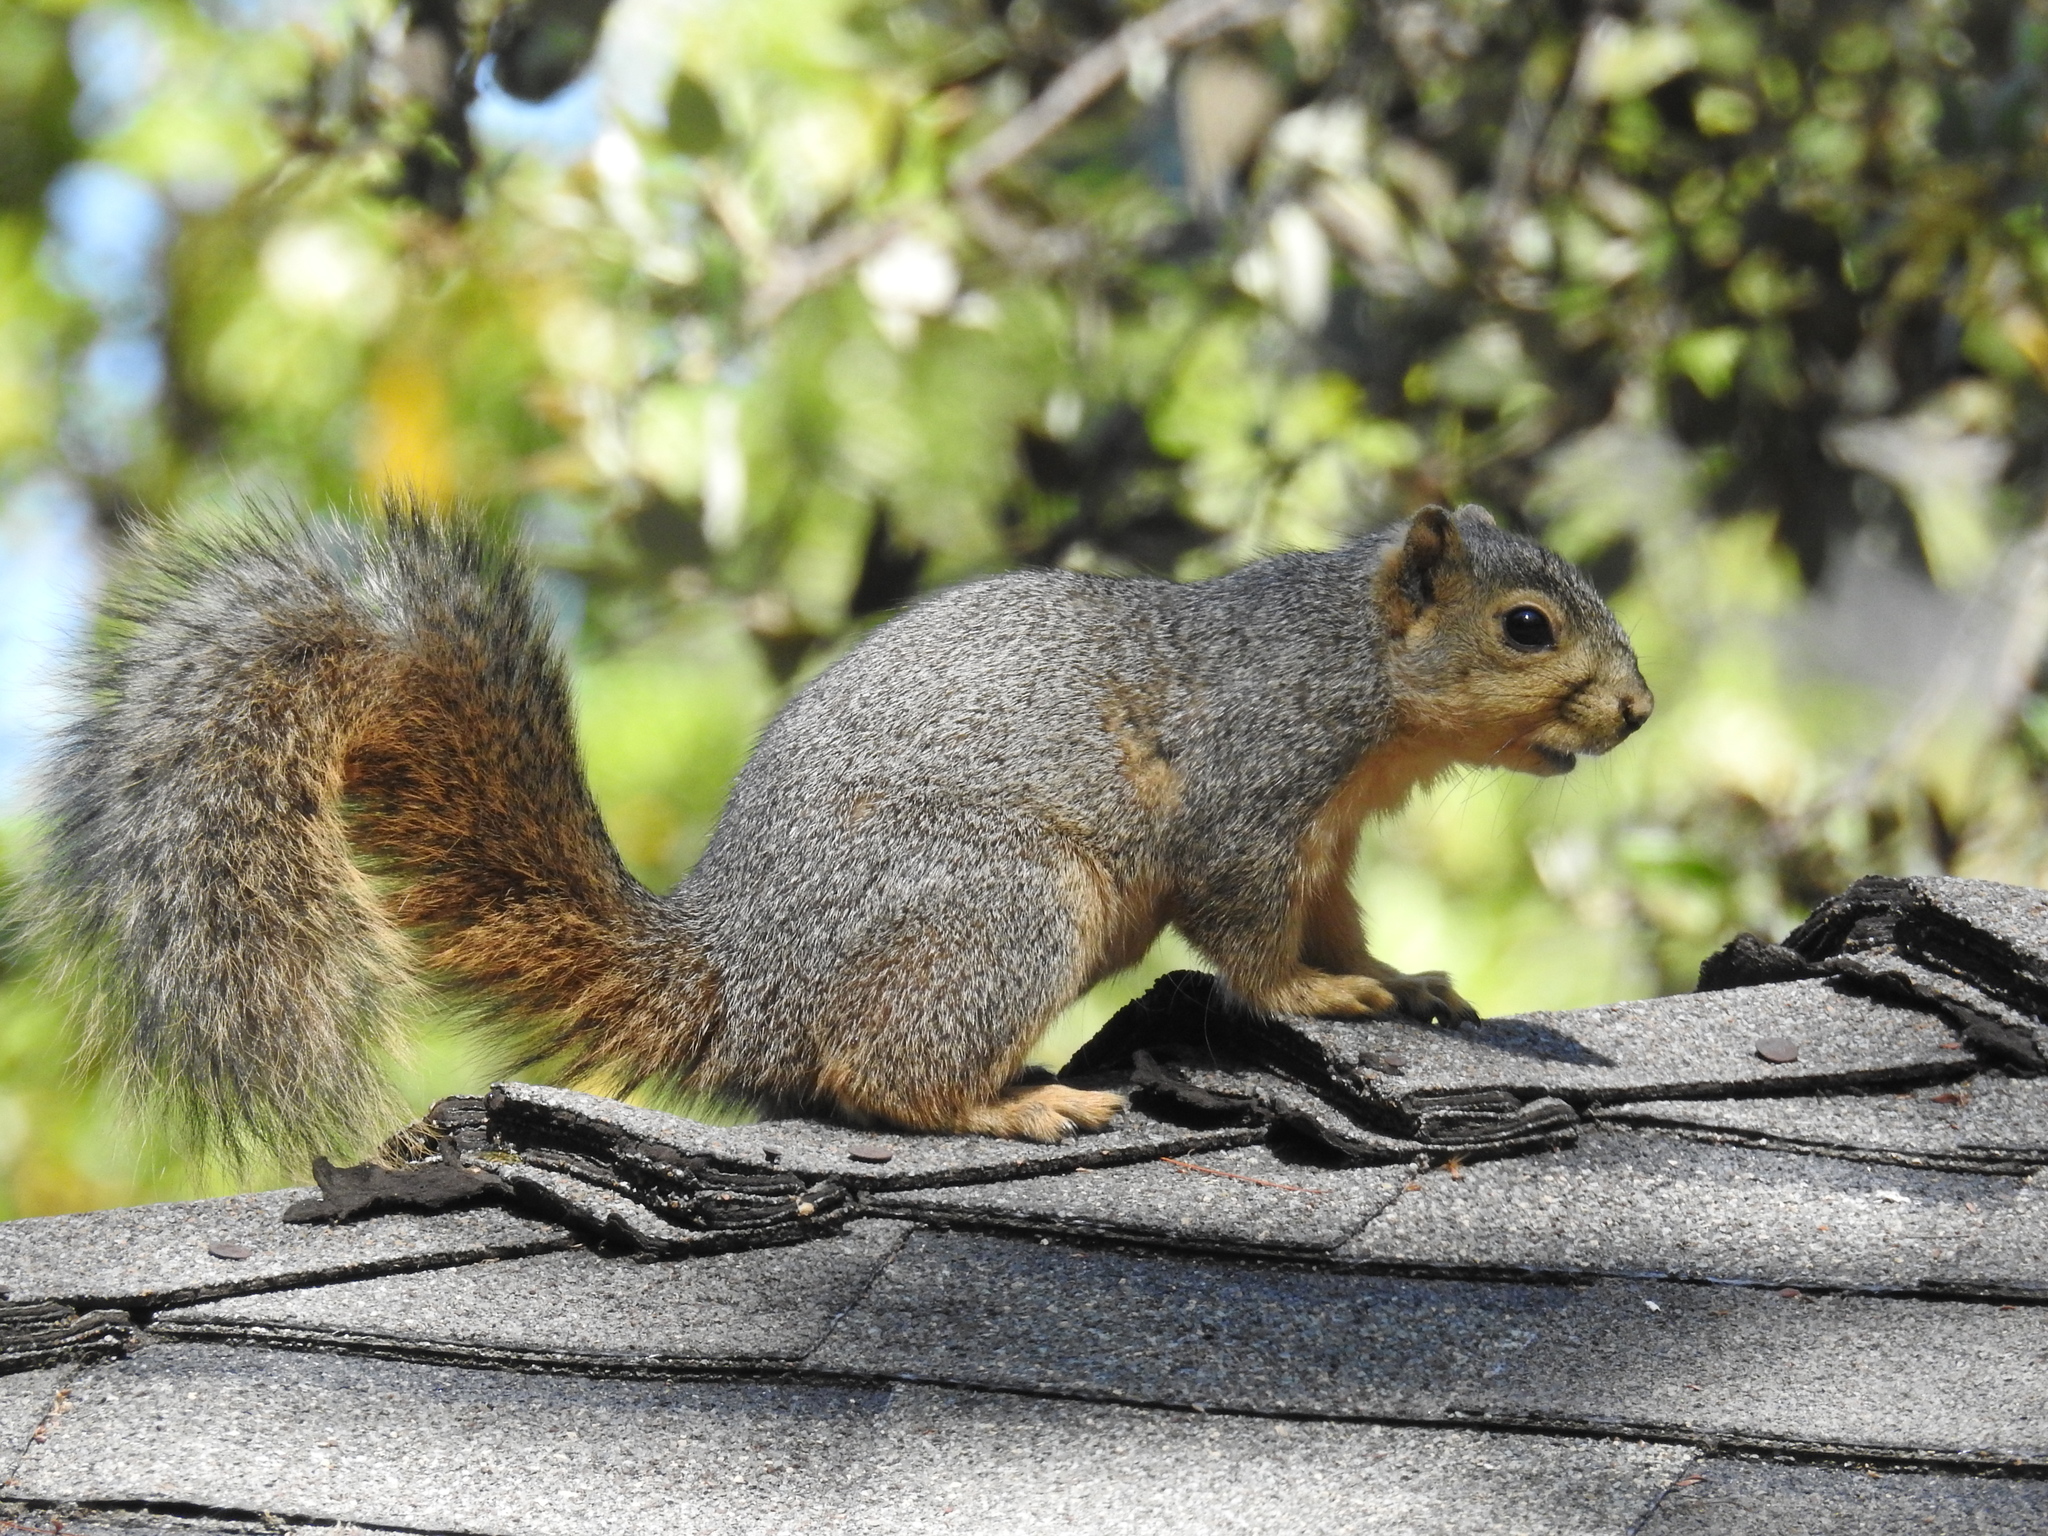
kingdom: Animalia
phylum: Chordata
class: Mammalia
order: Rodentia
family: Sciuridae
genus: Sciurus
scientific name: Sciurus niger
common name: Fox squirrel
